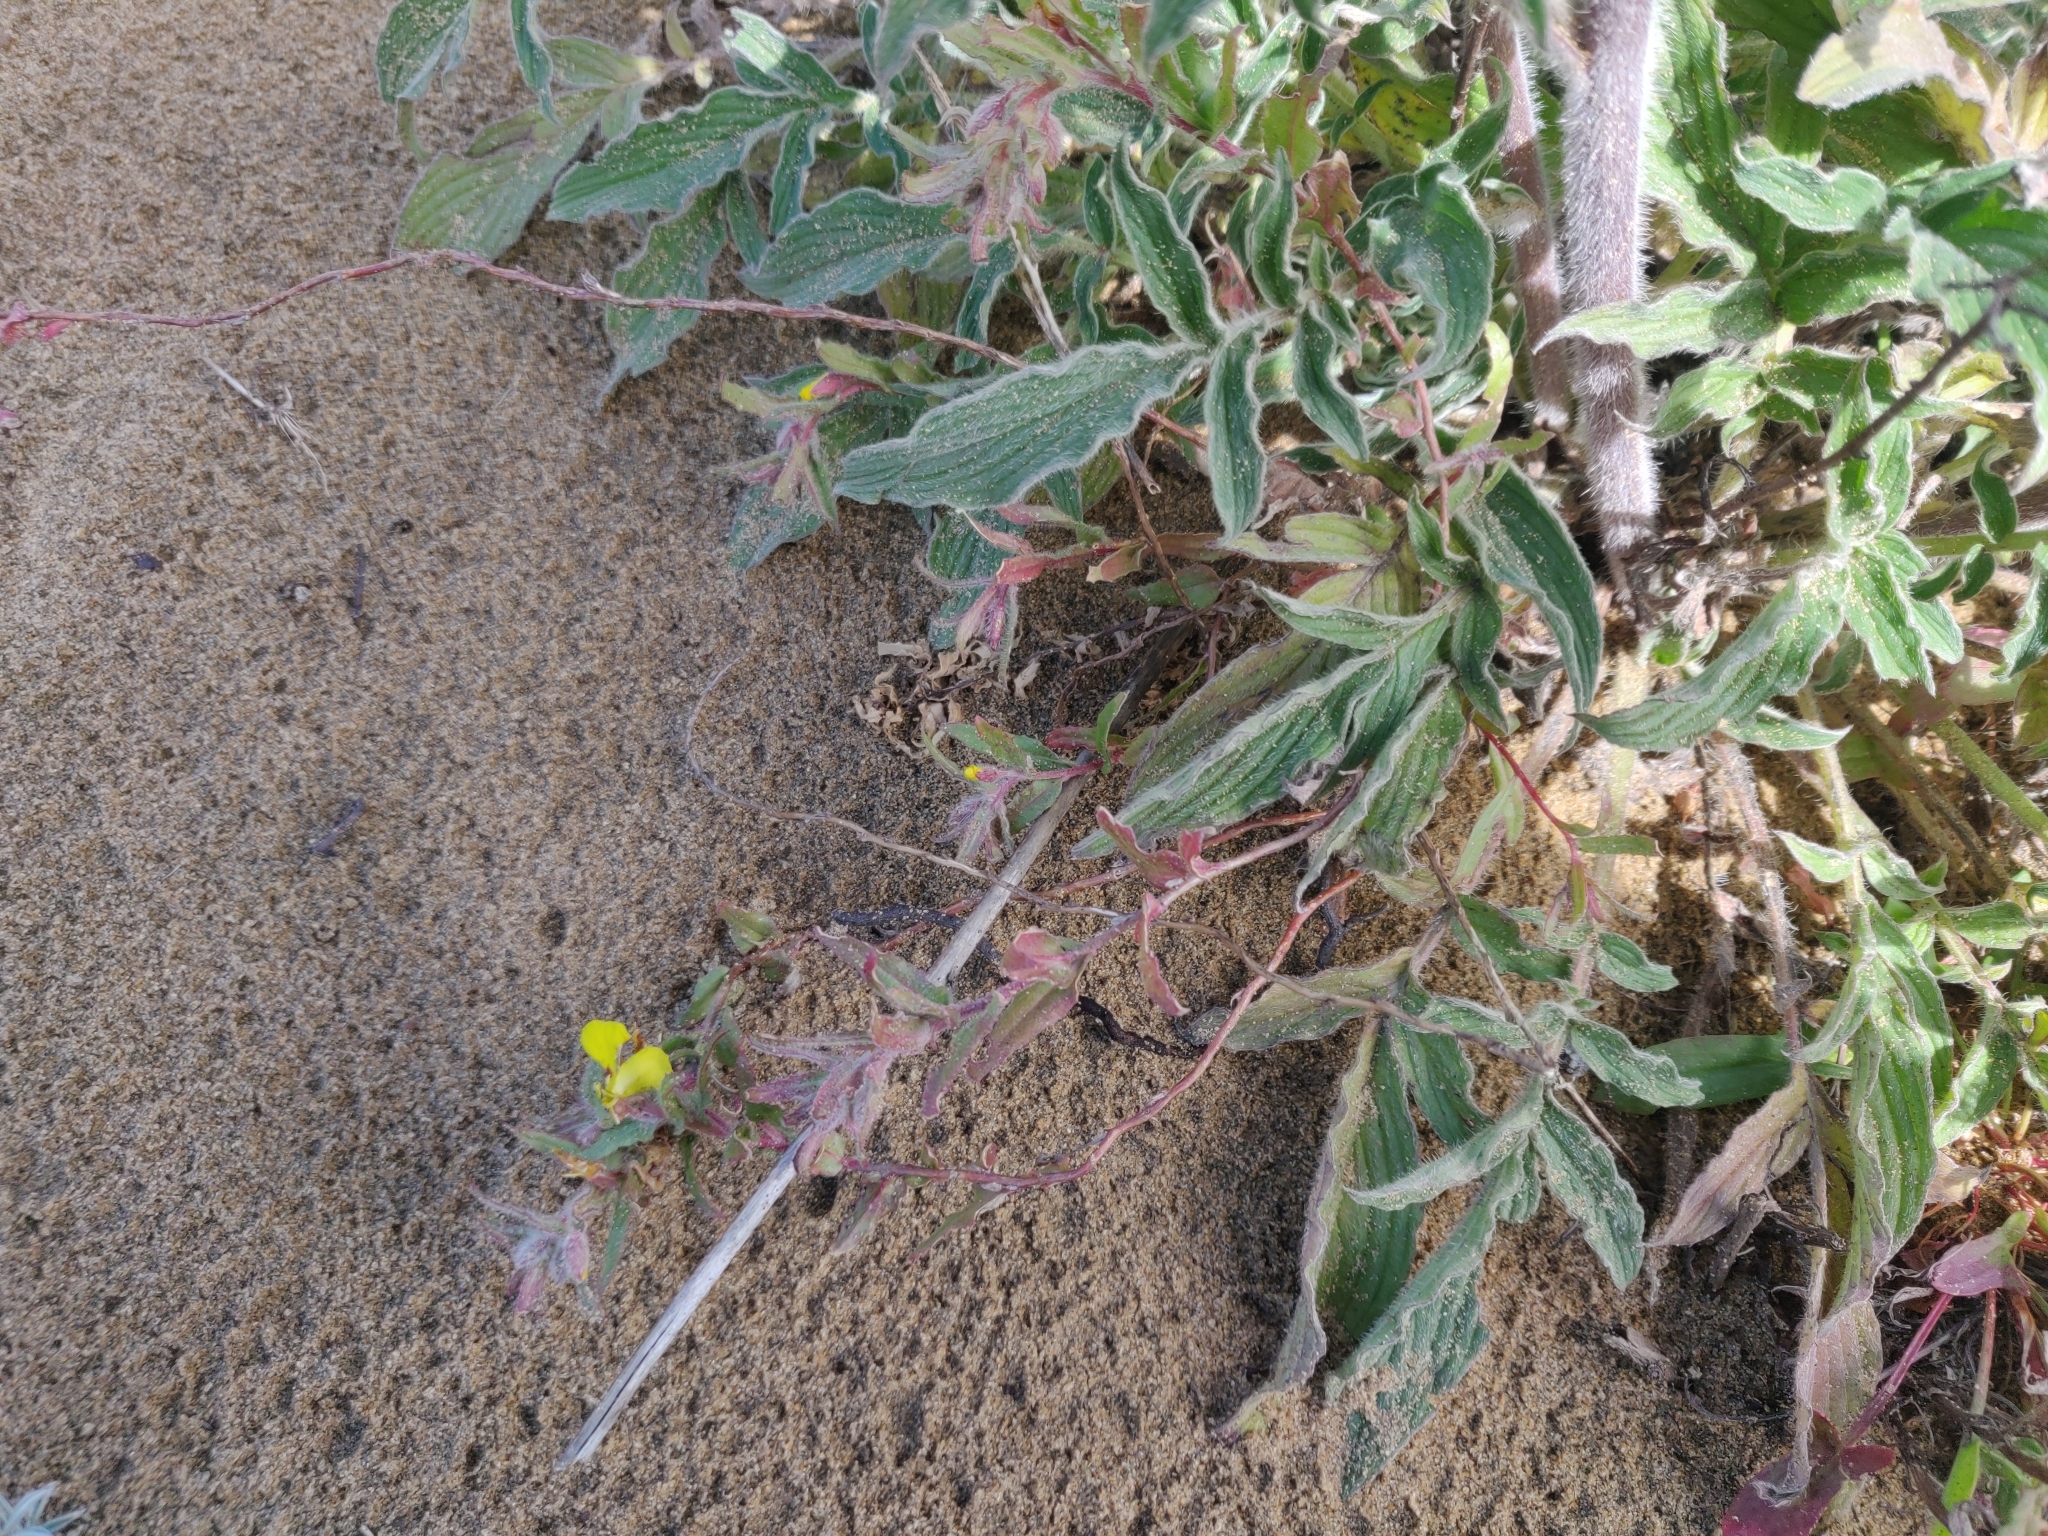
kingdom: Plantae
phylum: Tracheophyta
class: Magnoliopsida
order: Myrtales
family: Onagraceae
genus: Camissoniopsis
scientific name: Camissoniopsis bistorta
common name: Southern suncup
